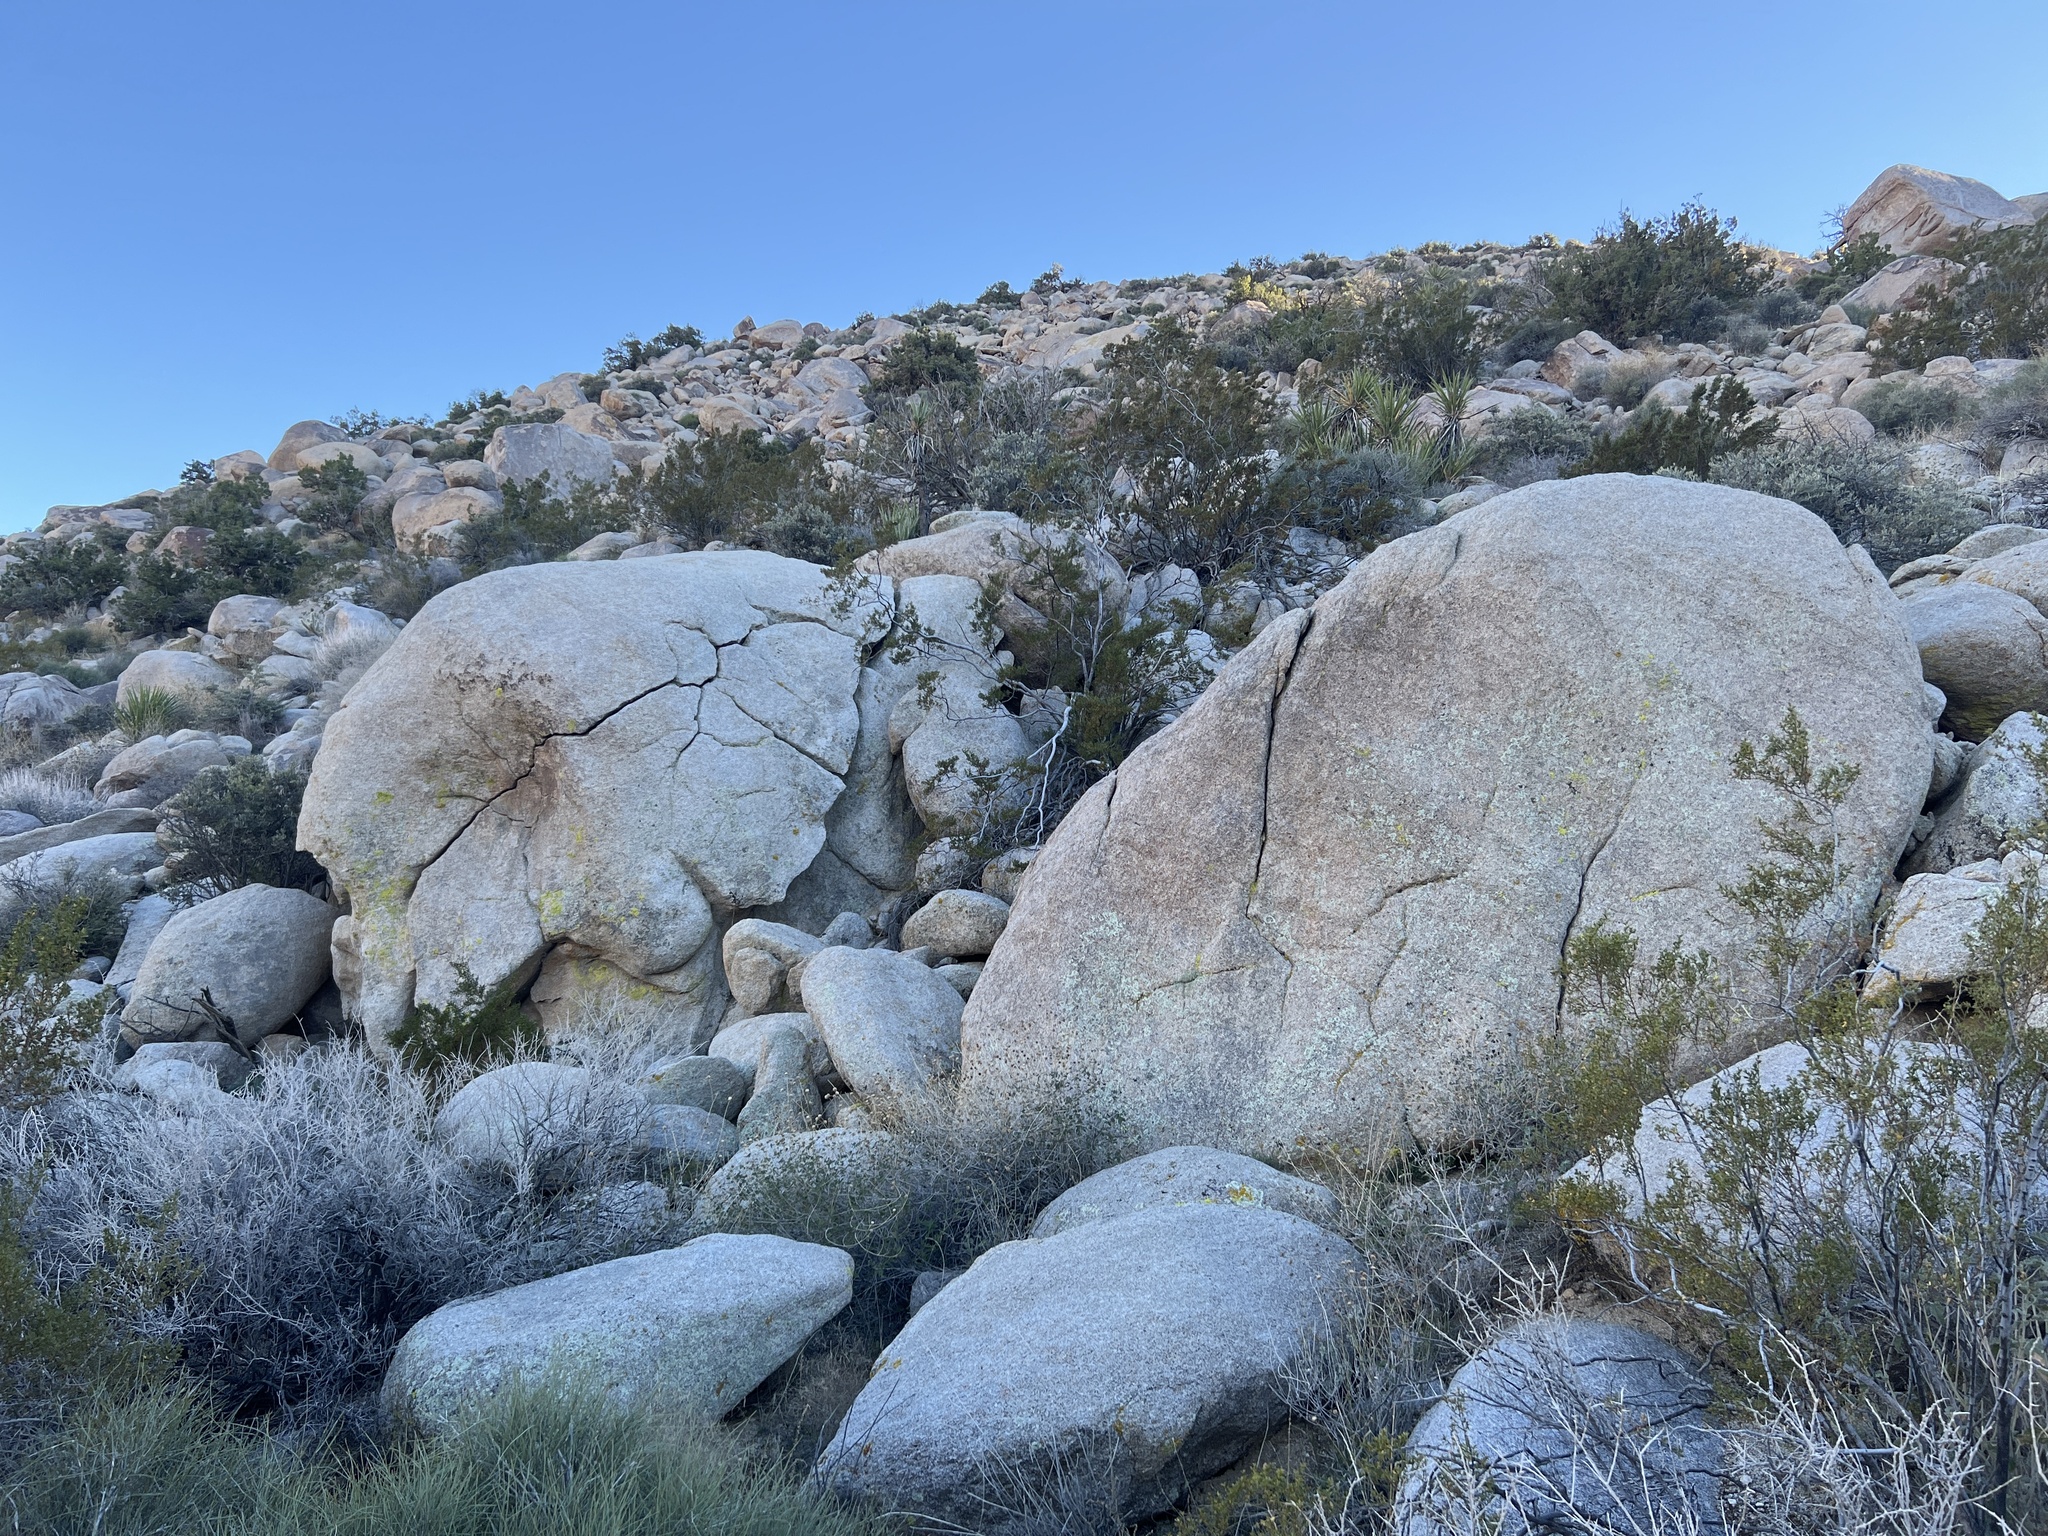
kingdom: Plantae
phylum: Tracheophyta
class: Magnoliopsida
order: Zygophyllales
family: Zygophyllaceae
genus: Larrea
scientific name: Larrea tridentata
